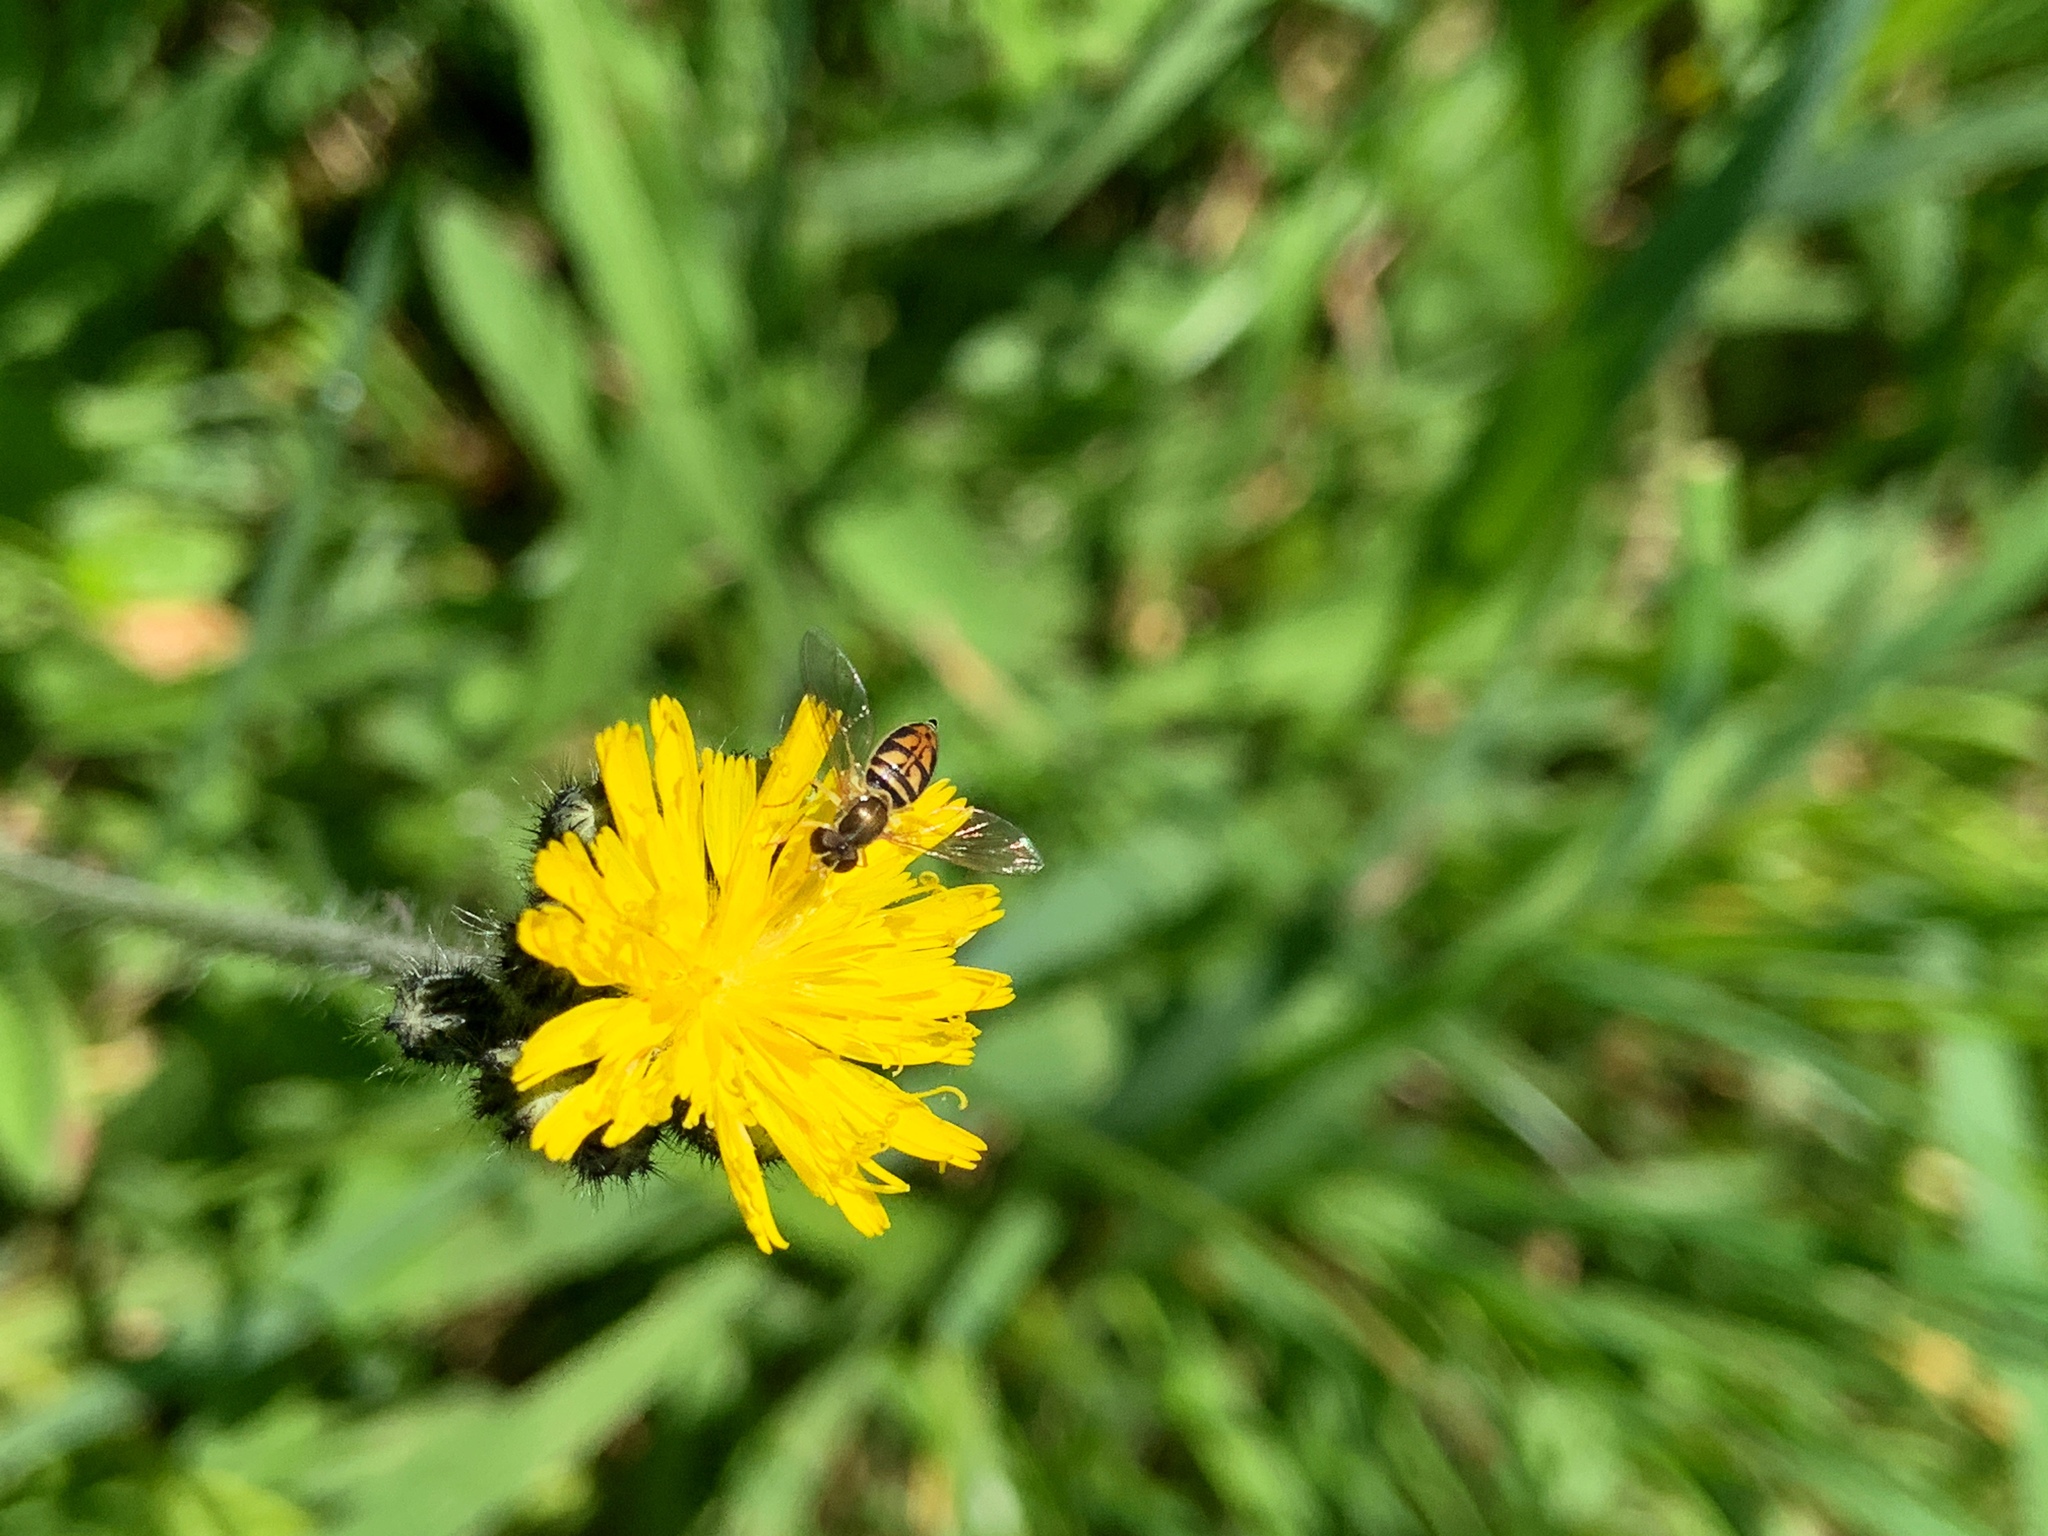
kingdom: Animalia
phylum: Arthropoda
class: Insecta
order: Diptera
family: Syrphidae
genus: Toxomerus
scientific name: Toxomerus marginatus
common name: Syrphid fly
